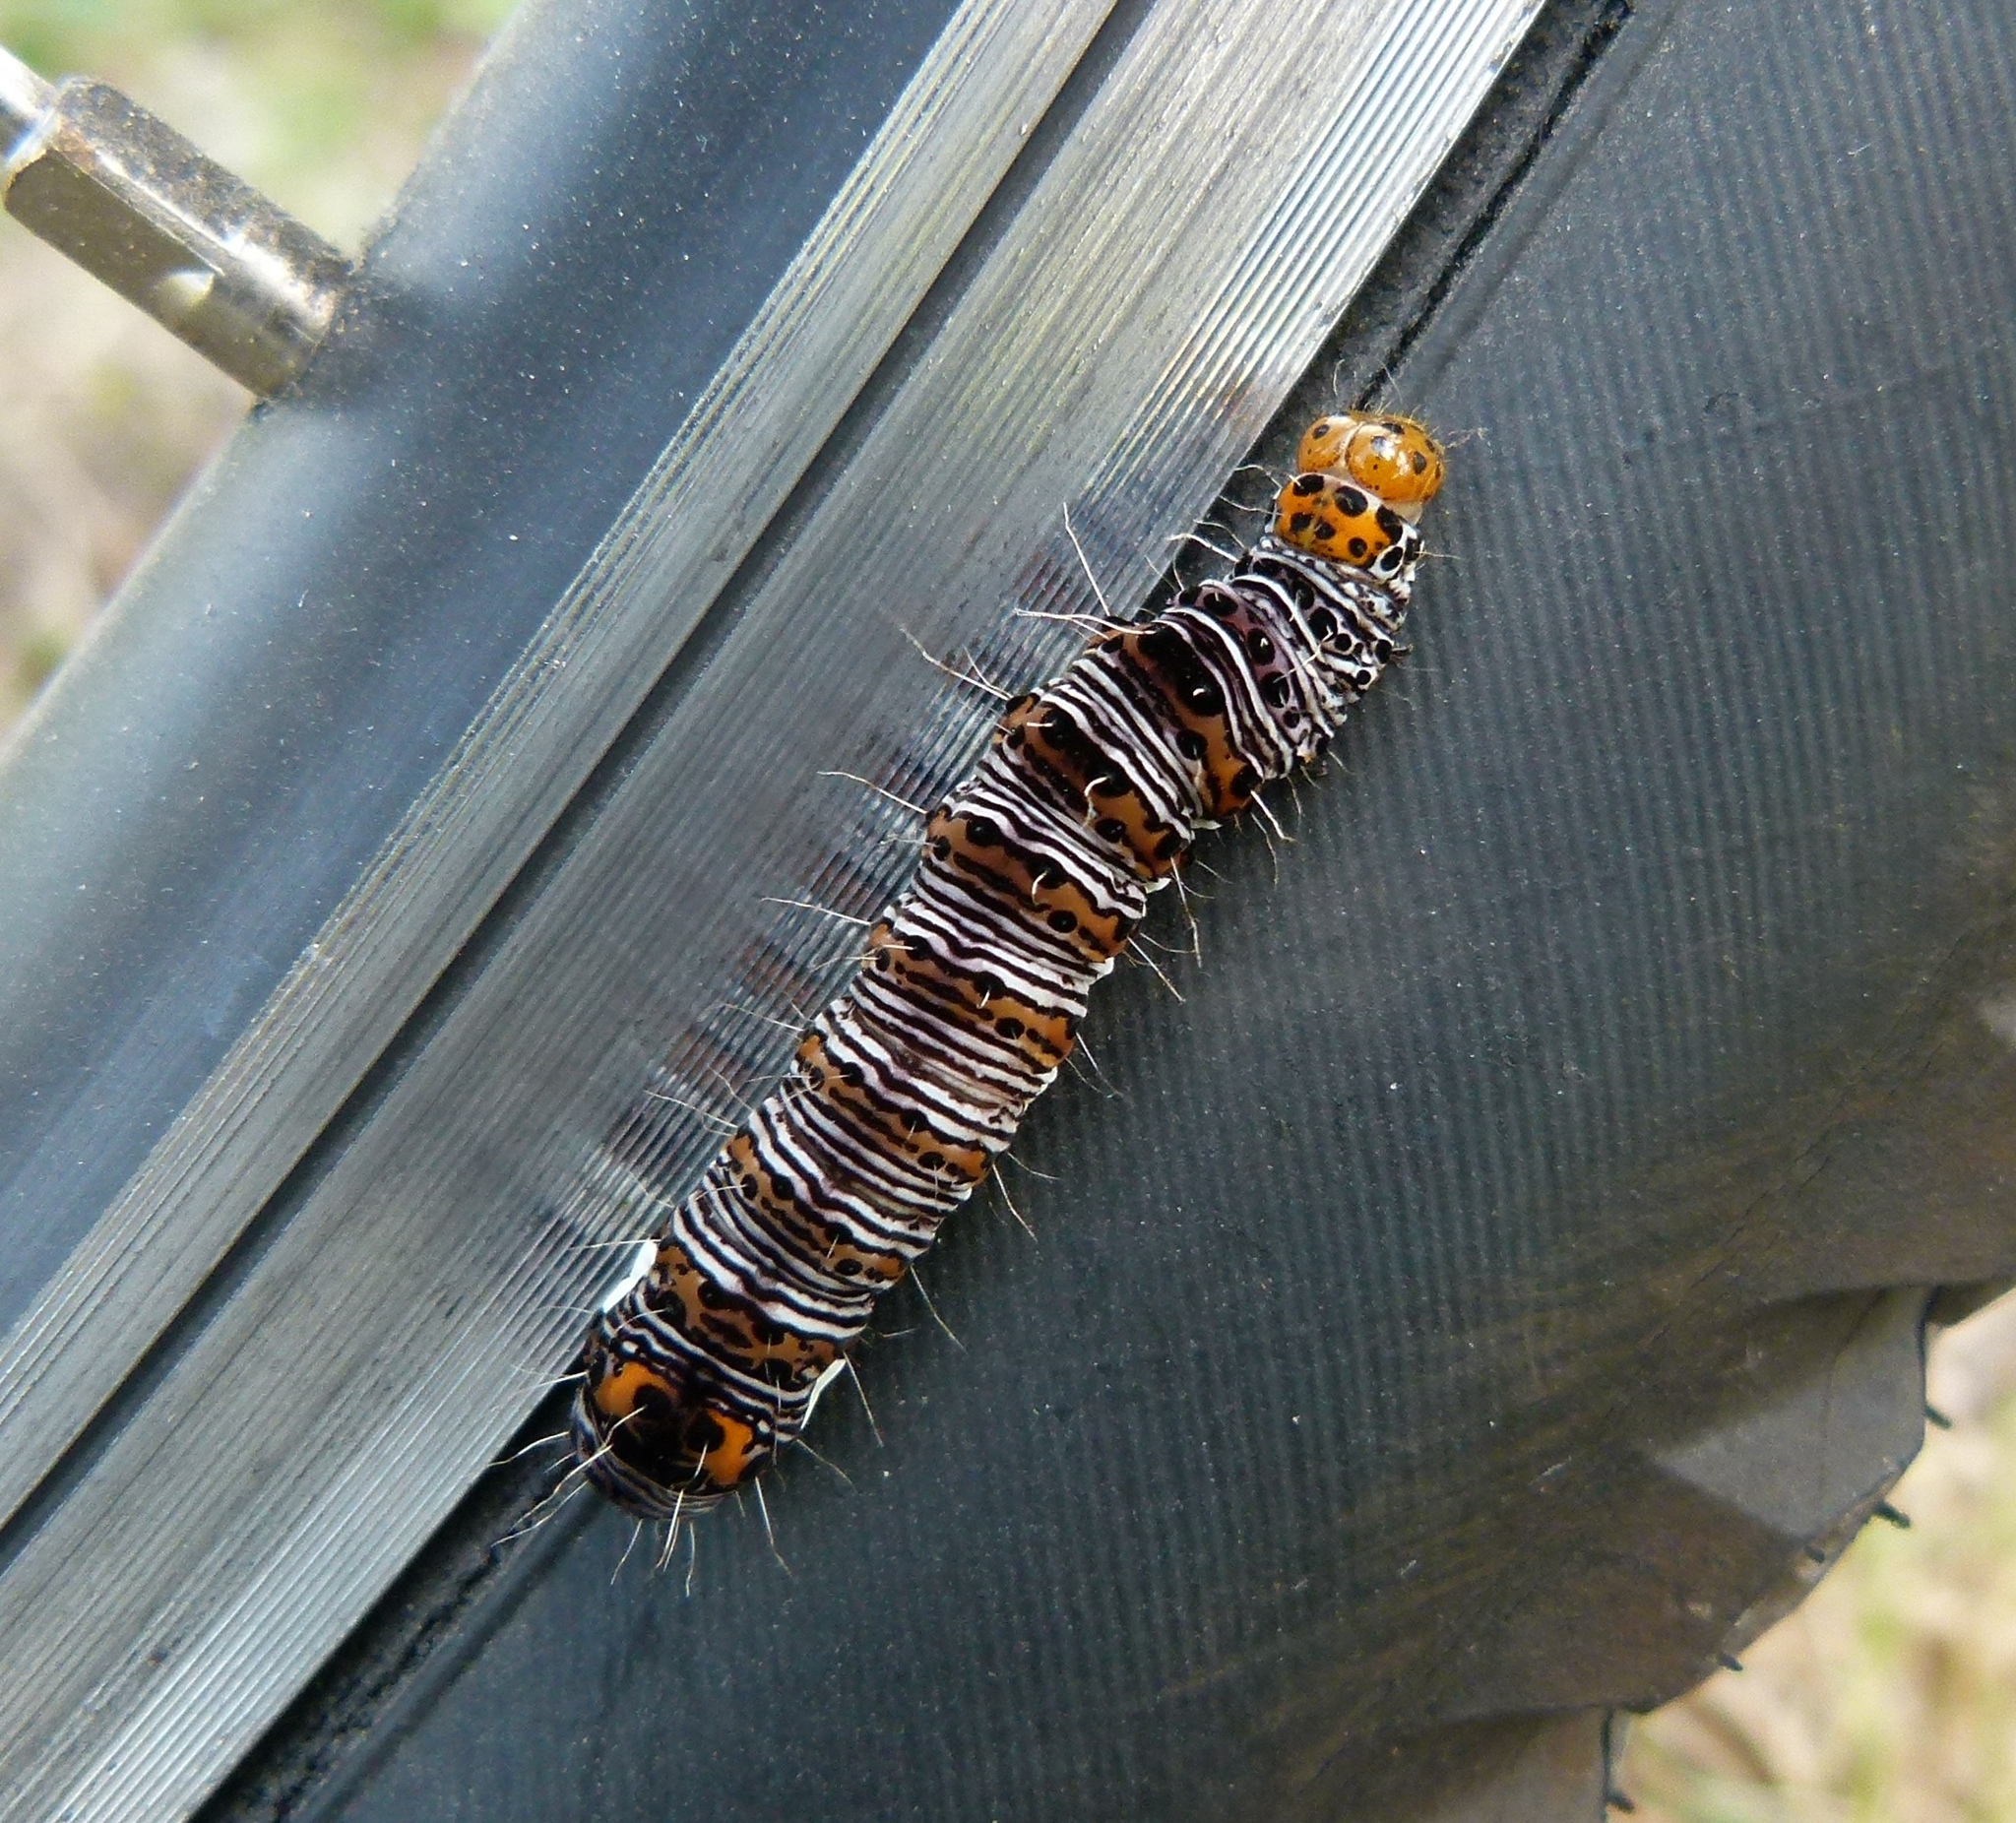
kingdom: Animalia
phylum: Arthropoda
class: Insecta
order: Lepidoptera
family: Noctuidae
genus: Alypia
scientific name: Alypia octomaculata
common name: Eight-spotted forester
